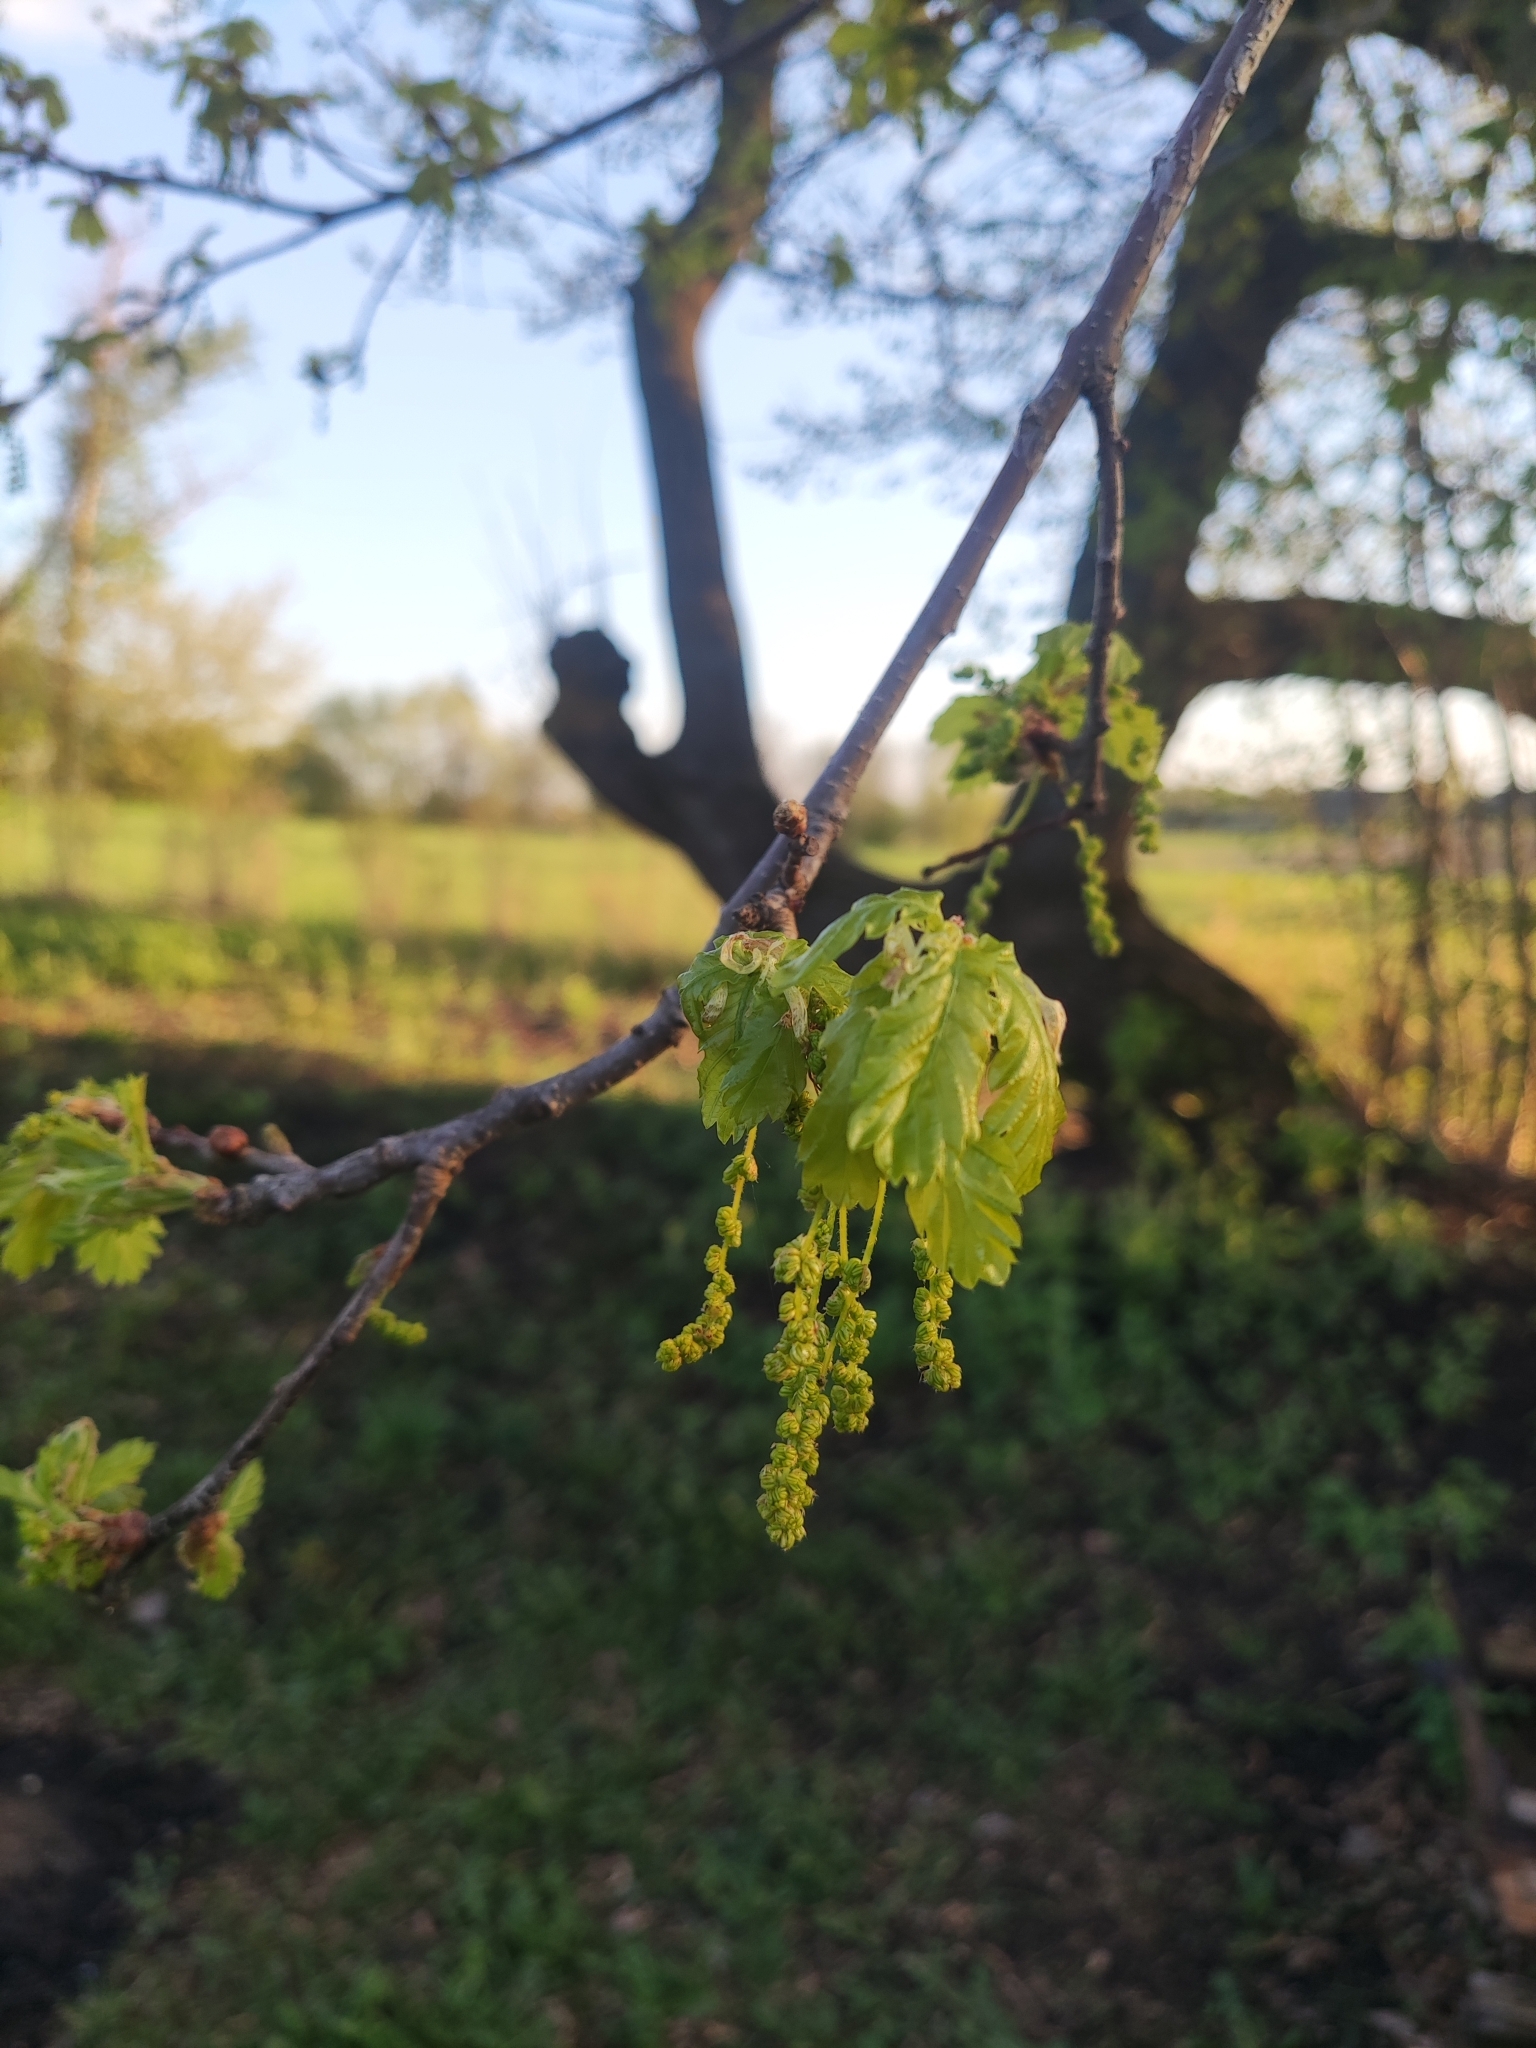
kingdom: Plantae
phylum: Tracheophyta
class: Magnoliopsida
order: Fagales
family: Fagaceae
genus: Quercus
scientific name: Quercus robur
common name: Pedunculate oak
